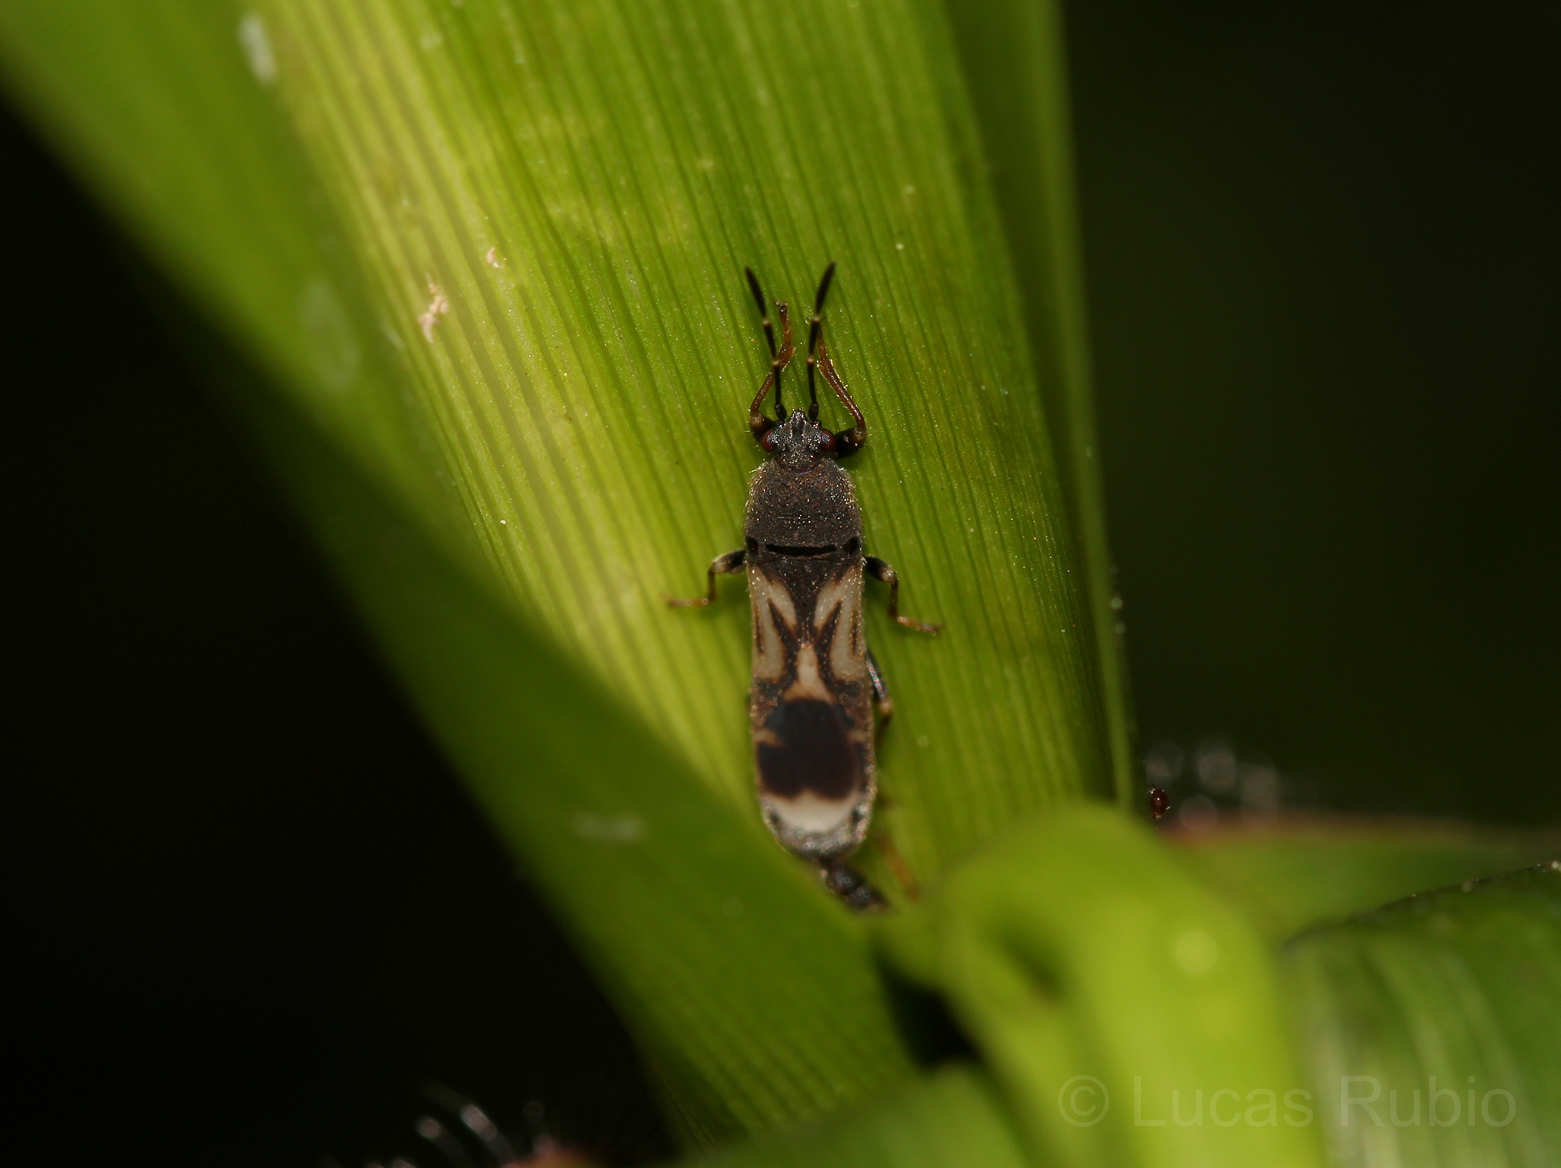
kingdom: Animalia
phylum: Arthropoda
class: Insecta
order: Hemiptera
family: Blissidae
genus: Ischnodemus
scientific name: Ischnodemus variegatus
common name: Myakka bug
